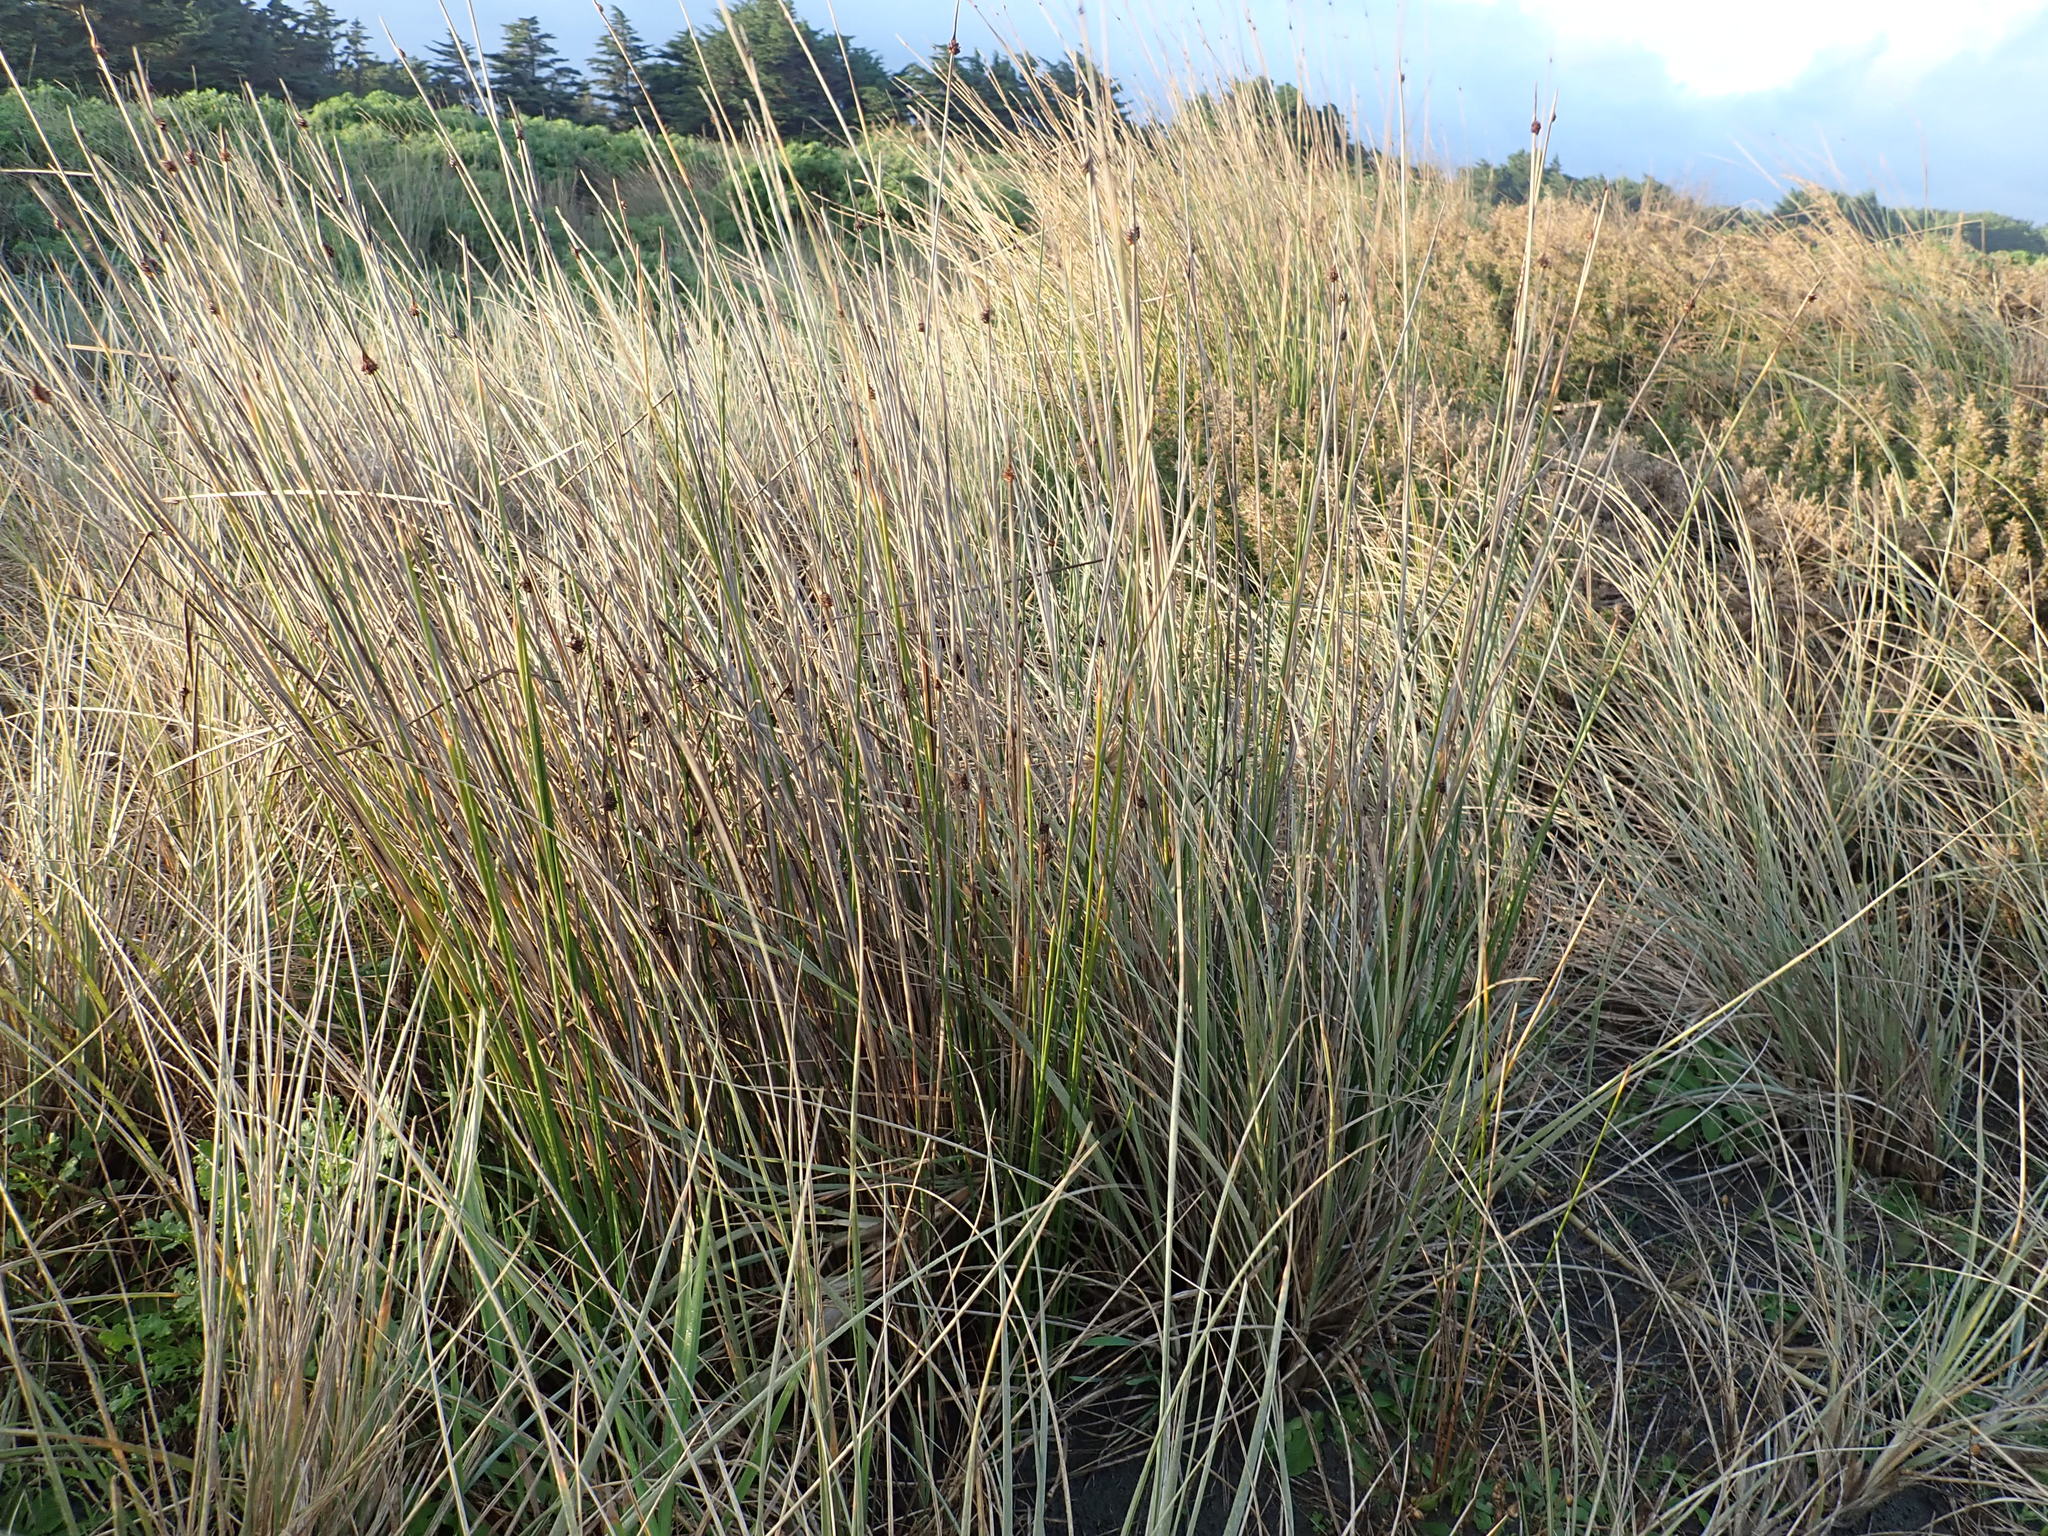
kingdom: Plantae
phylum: Tracheophyta
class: Liliopsida
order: Poales
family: Cyperaceae
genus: Ficinia
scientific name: Ficinia nodosa
